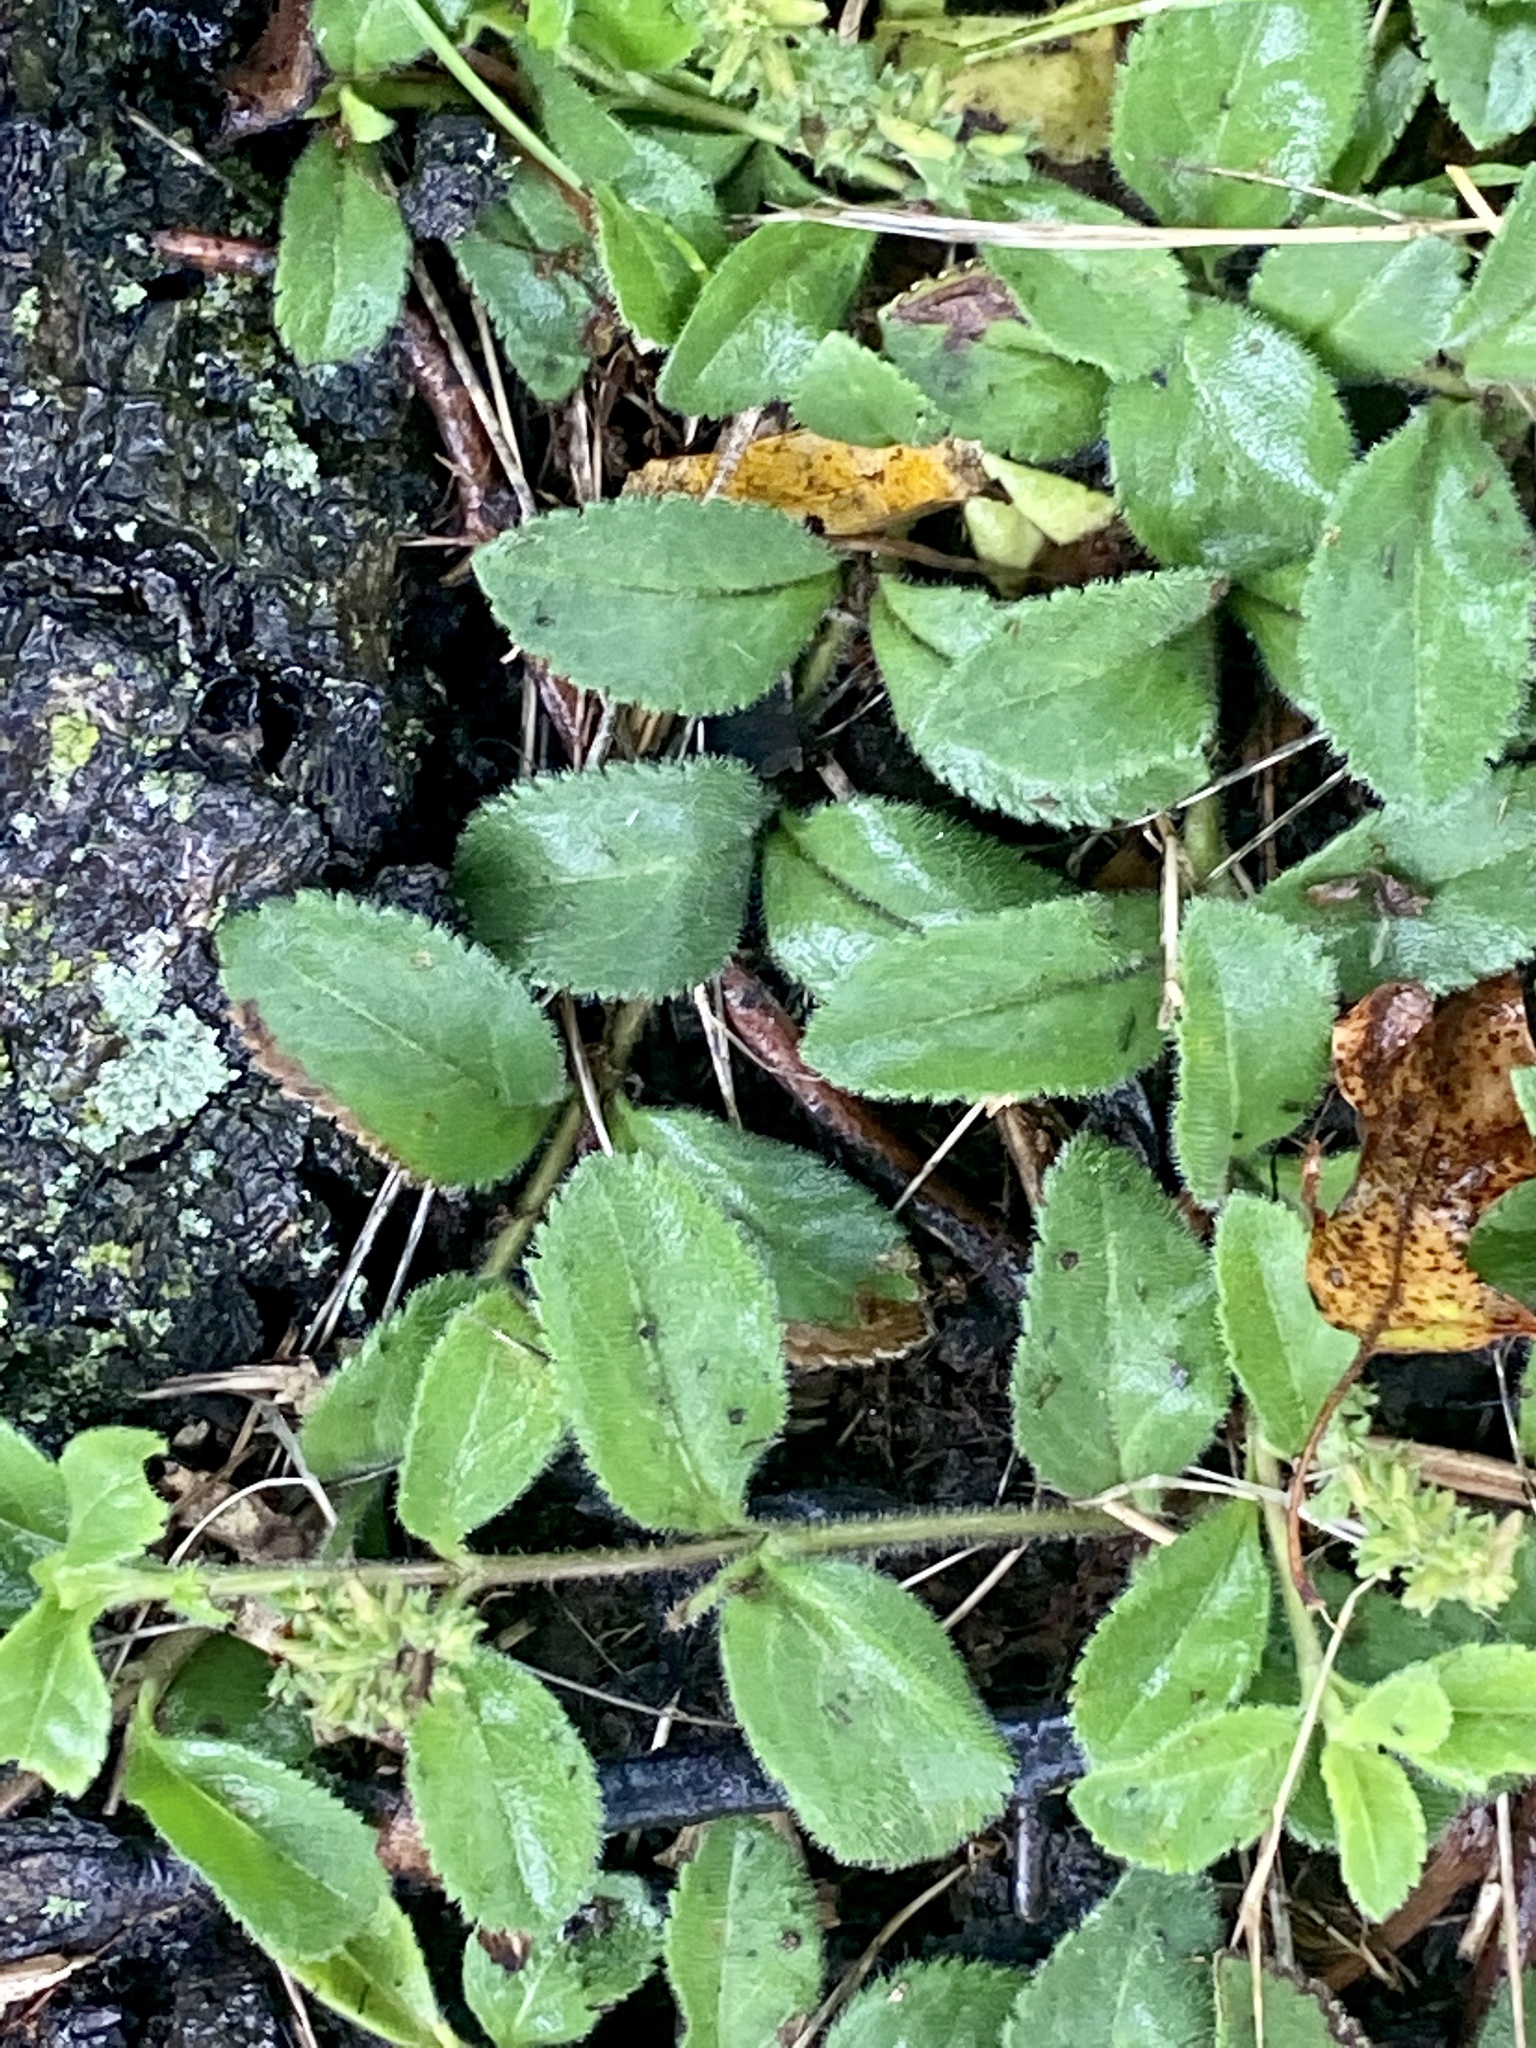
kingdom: Plantae
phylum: Tracheophyta
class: Magnoliopsida
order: Lamiales
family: Plantaginaceae
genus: Veronica
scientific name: Veronica officinalis
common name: Common speedwell
